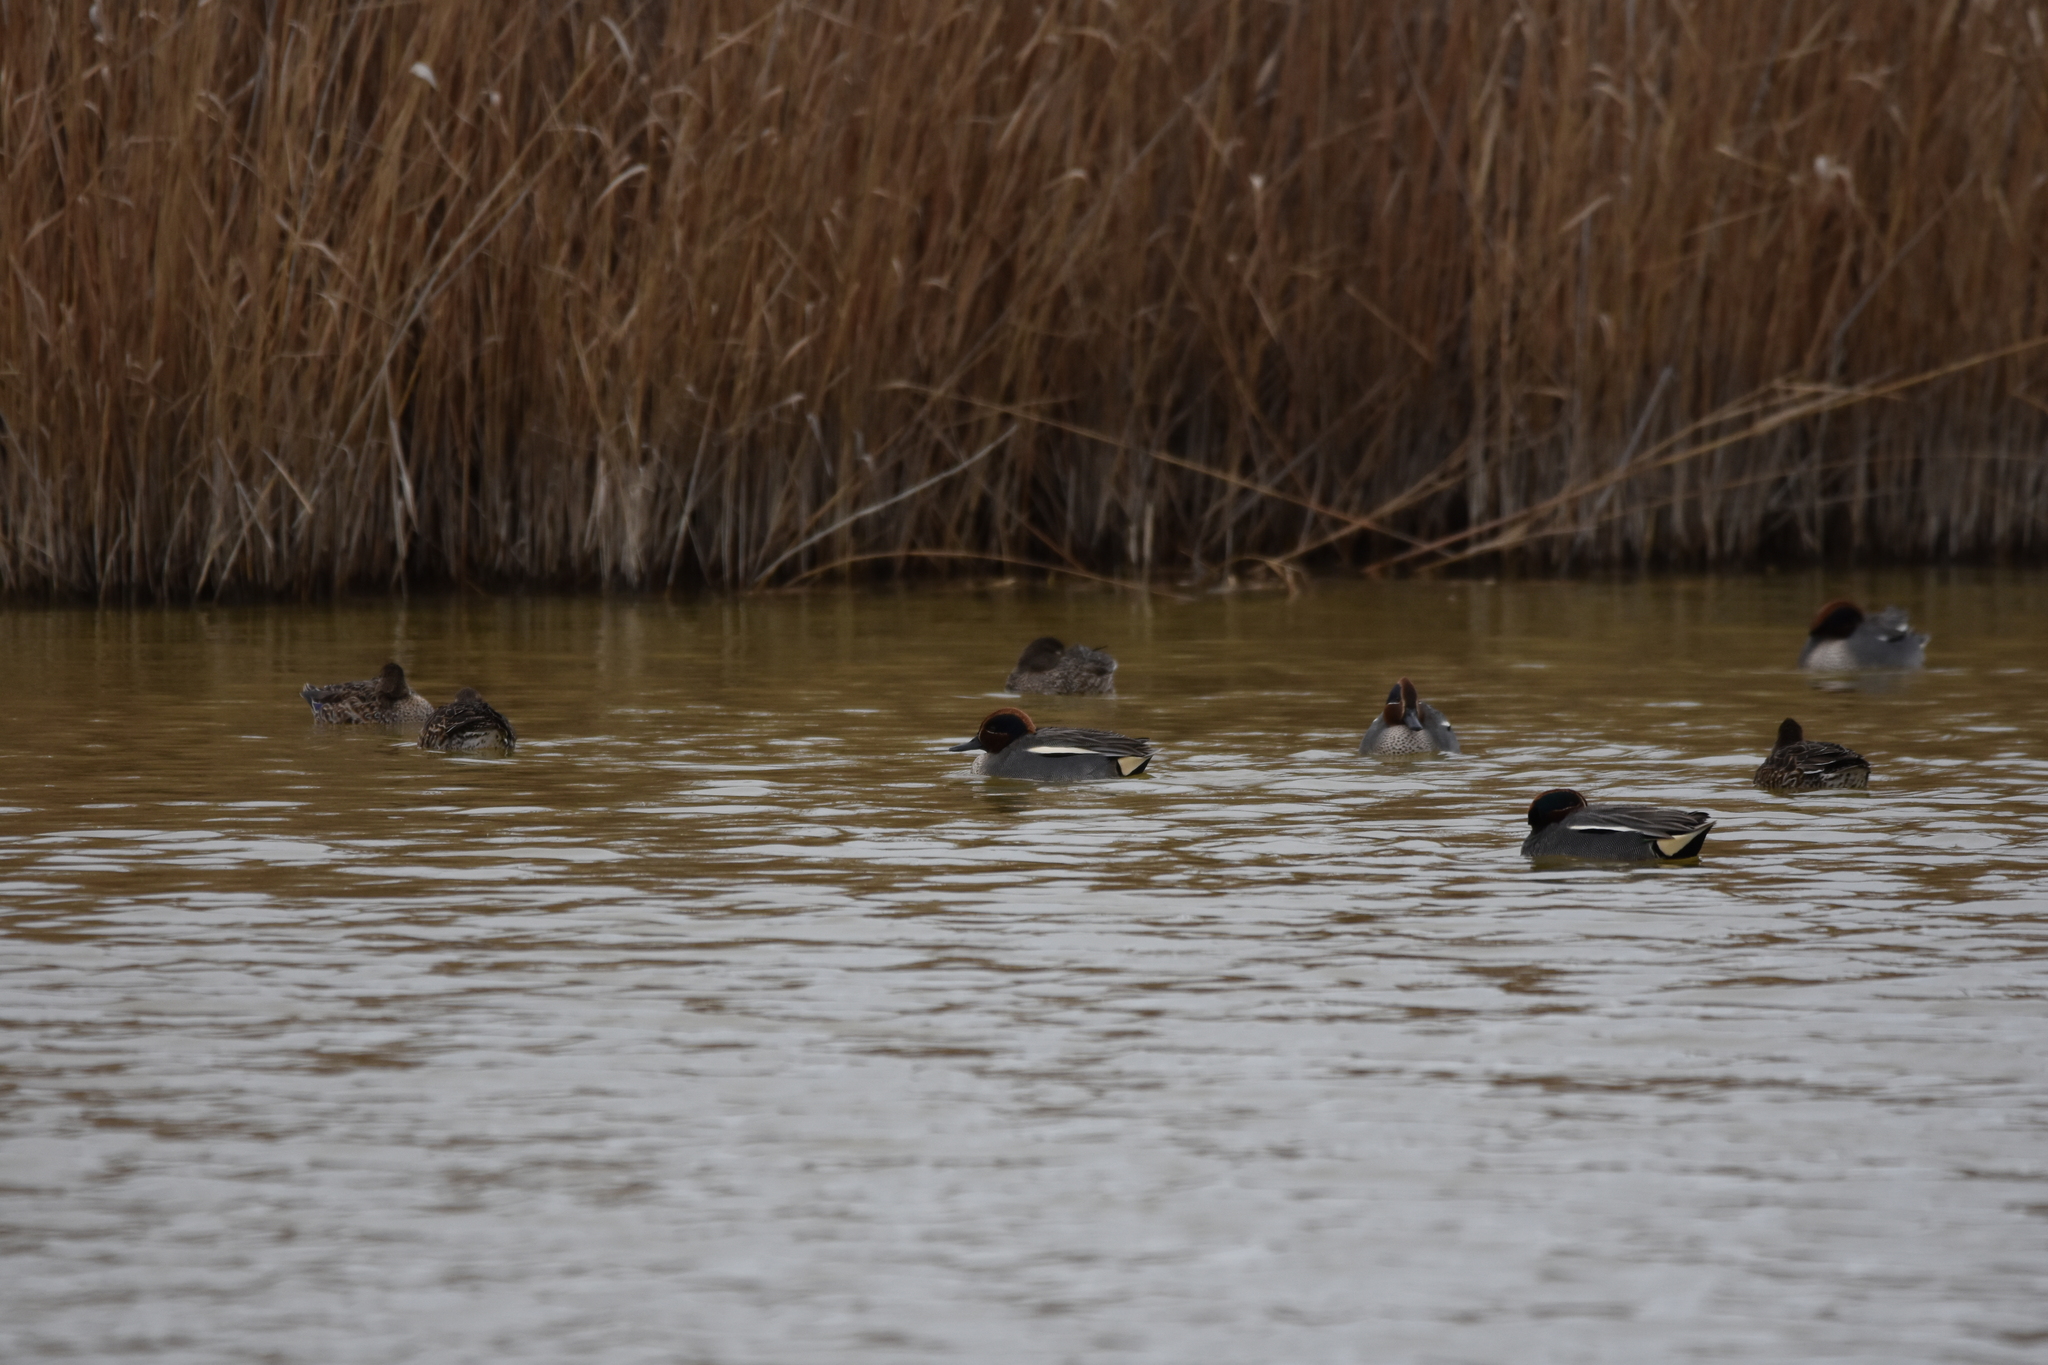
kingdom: Animalia
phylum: Chordata
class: Aves
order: Anseriformes
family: Anatidae
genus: Anas
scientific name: Anas crecca
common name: Eurasian teal
